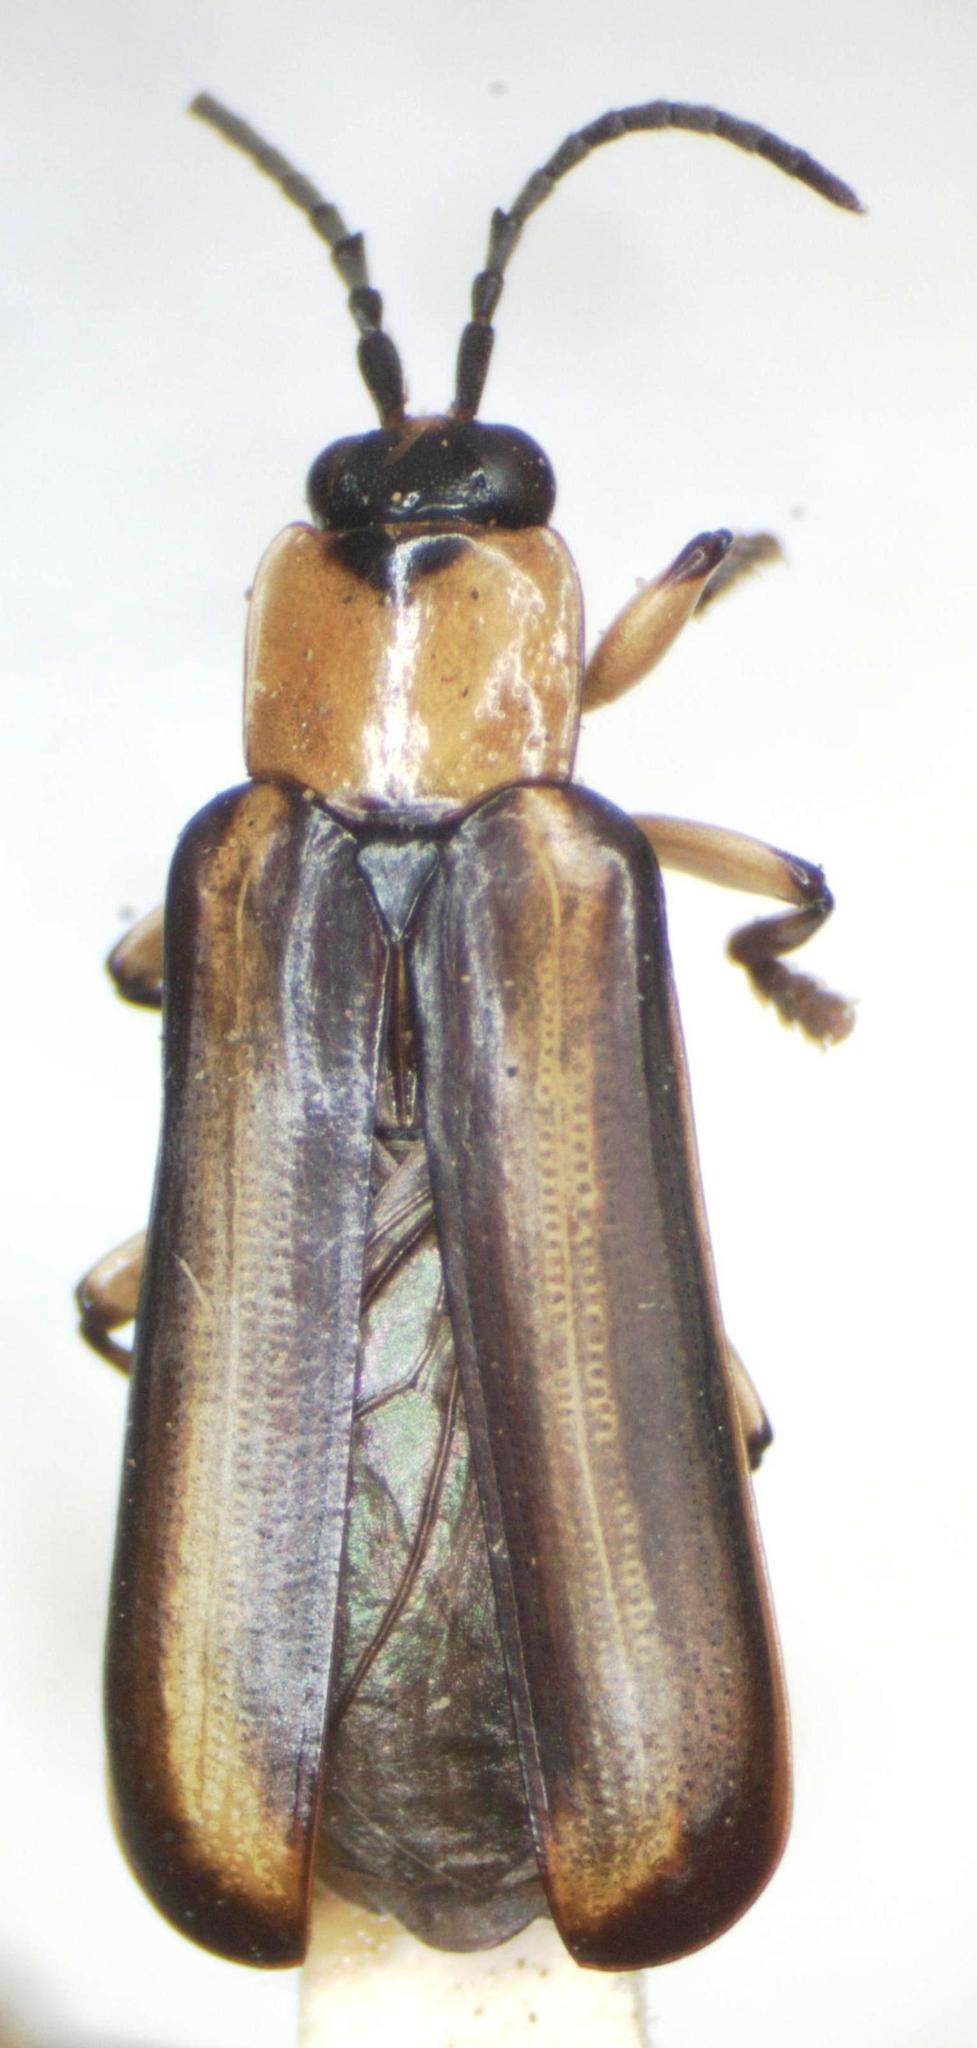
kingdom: Animalia
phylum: Arthropoda
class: Insecta
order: Coleoptera
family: Chrysomelidae
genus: Cephaloleia
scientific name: Cephaloleia belti
